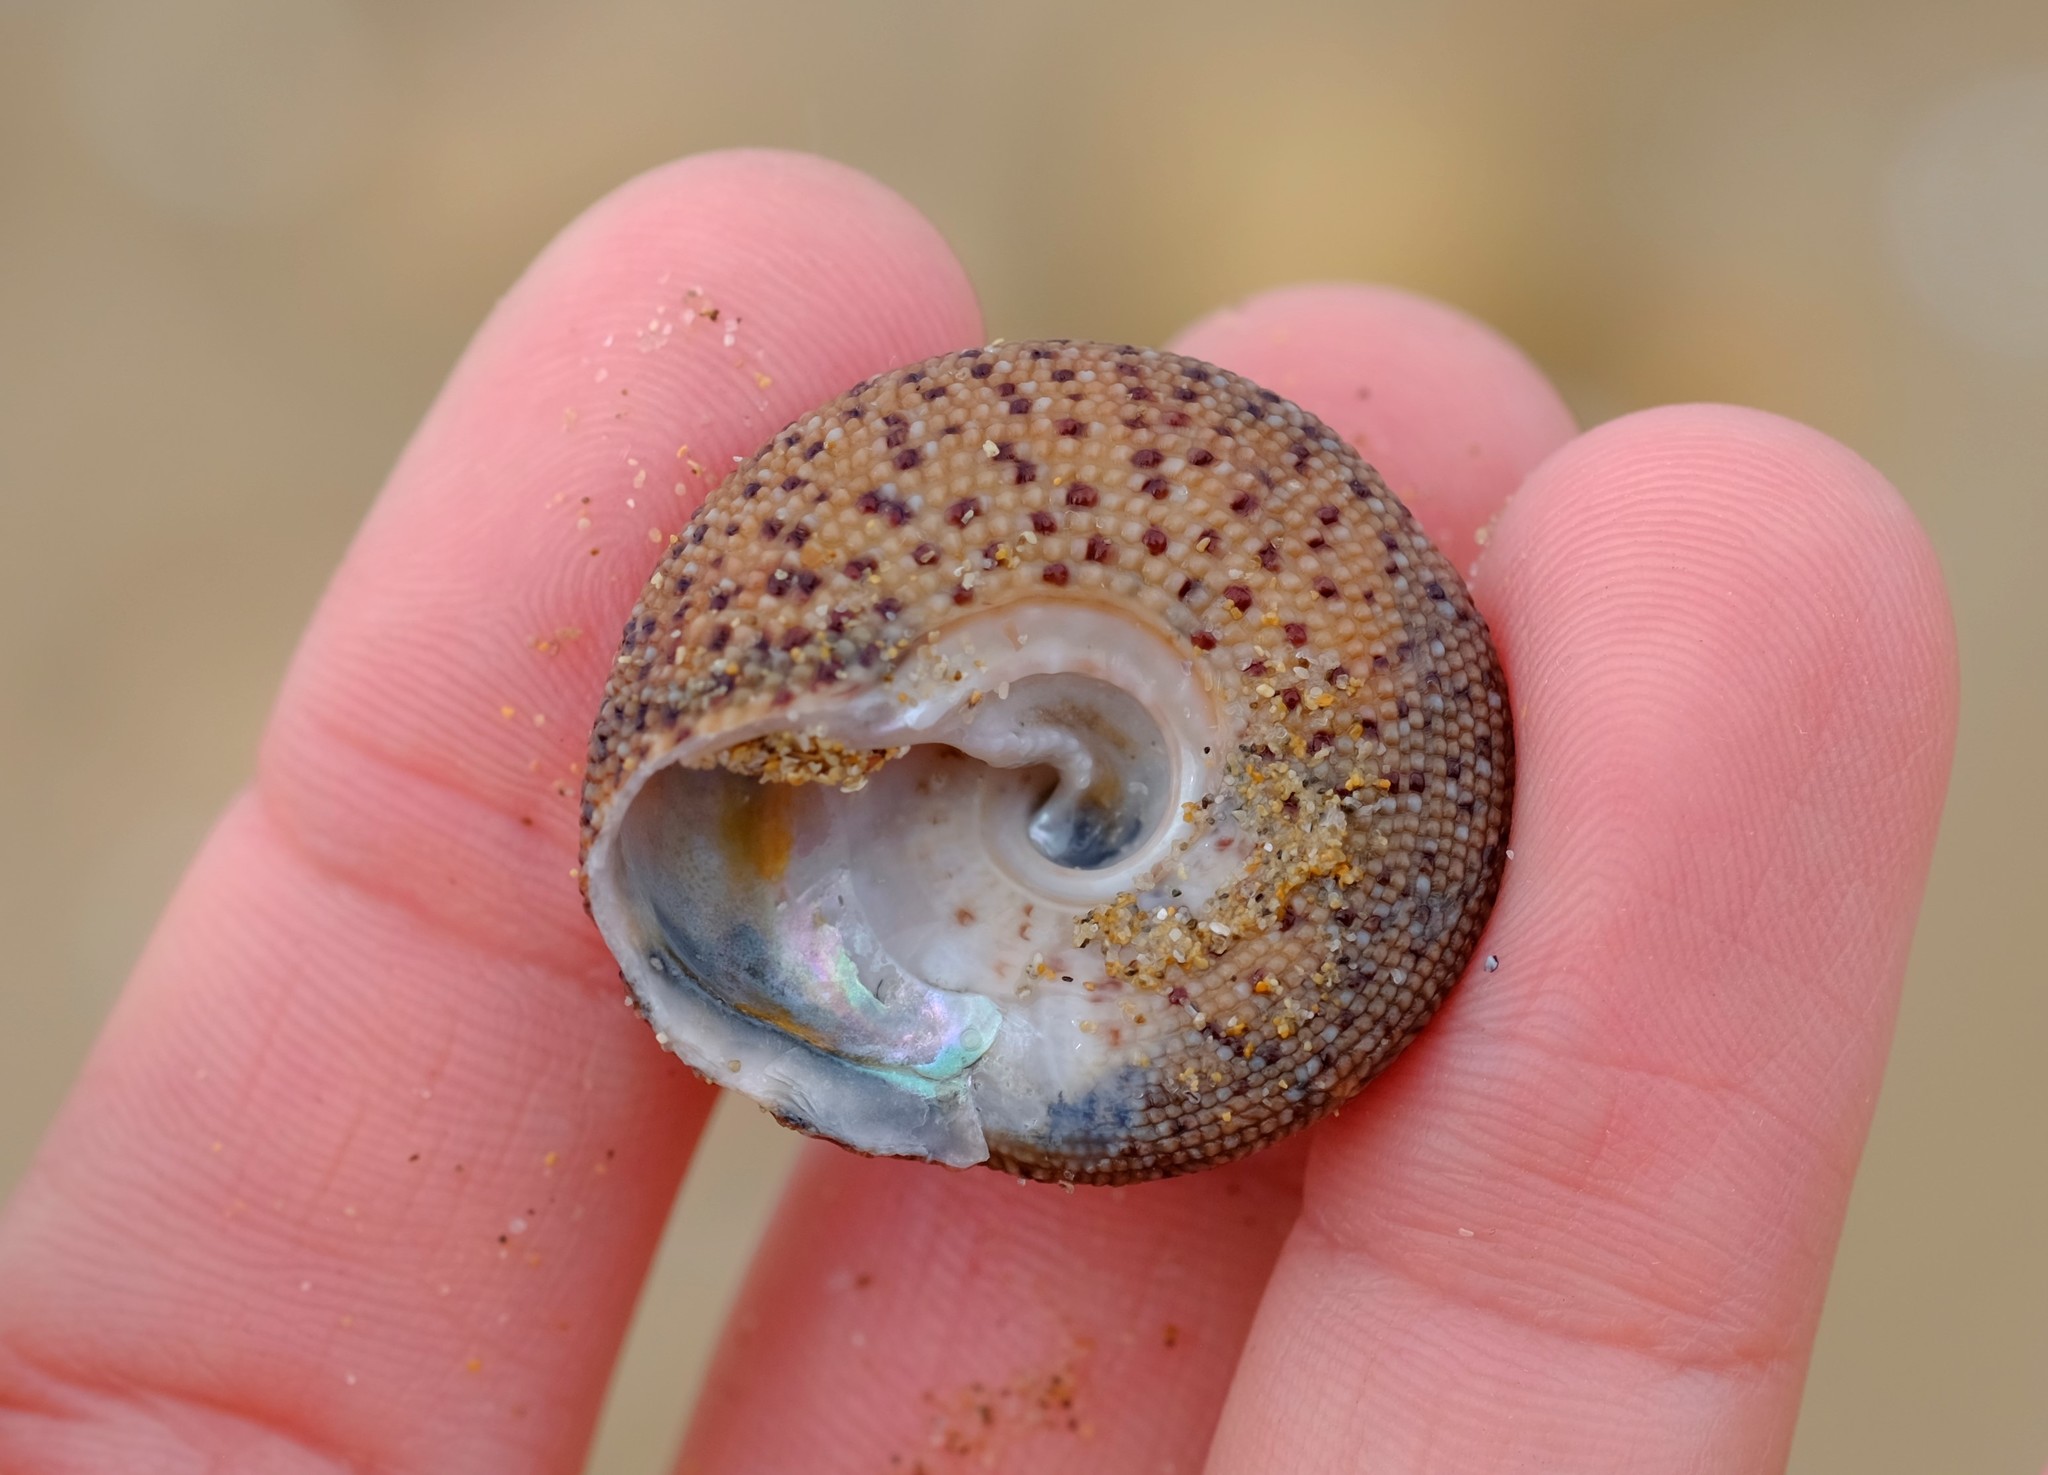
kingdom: Animalia
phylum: Mollusca
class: Gastropoda
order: Trochida
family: Trochidae
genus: Clanculus
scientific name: Clanculus undatus
